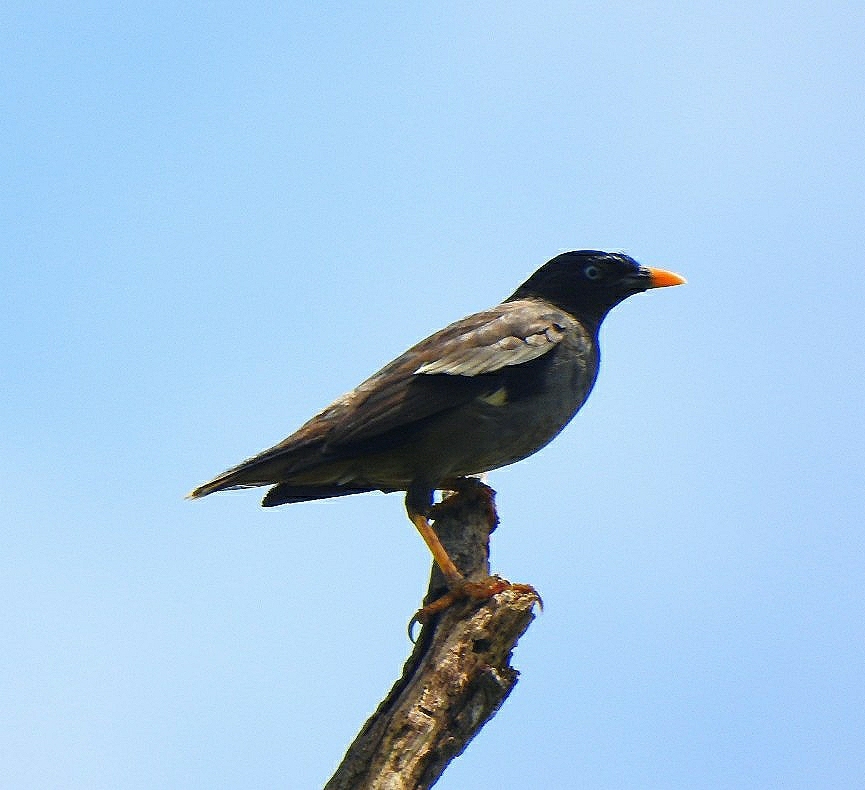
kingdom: Animalia
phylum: Chordata
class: Aves
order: Passeriformes
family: Sturnidae
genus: Acridotheres
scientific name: Acridotheres fuscus
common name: Jungle myna
